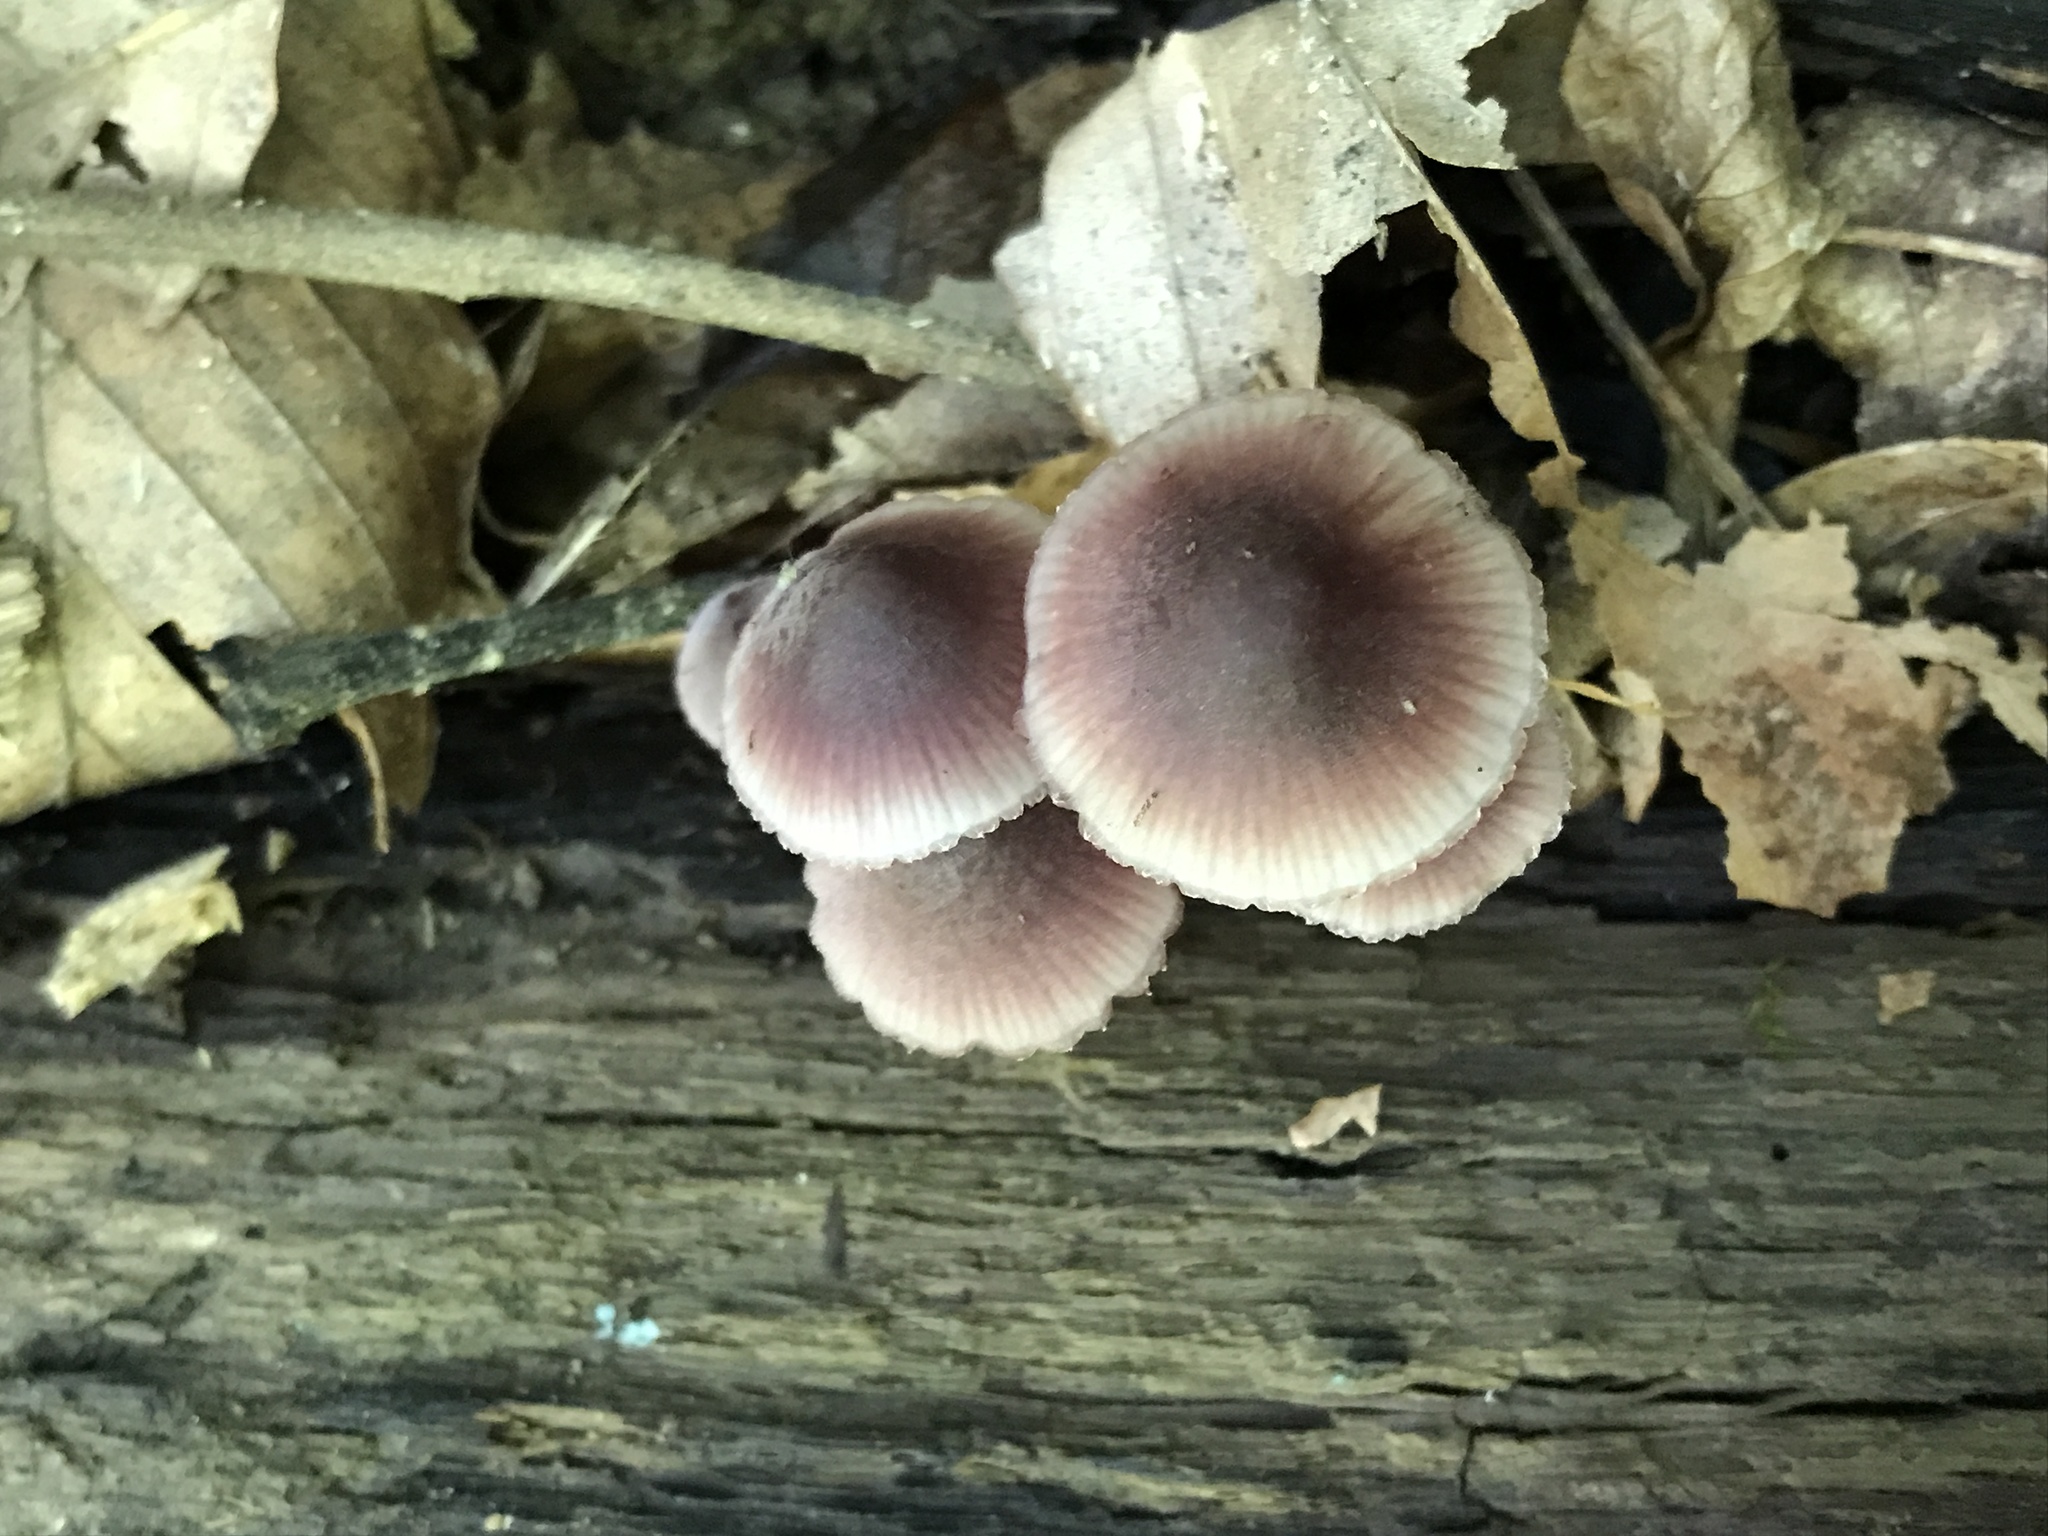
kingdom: Fungi
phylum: Basidiomycota
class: Agaricomycetes
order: Agaricales
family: Mycenaceae
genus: Mycena
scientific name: Mycena haematopus
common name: Burgundydrop bonnet
